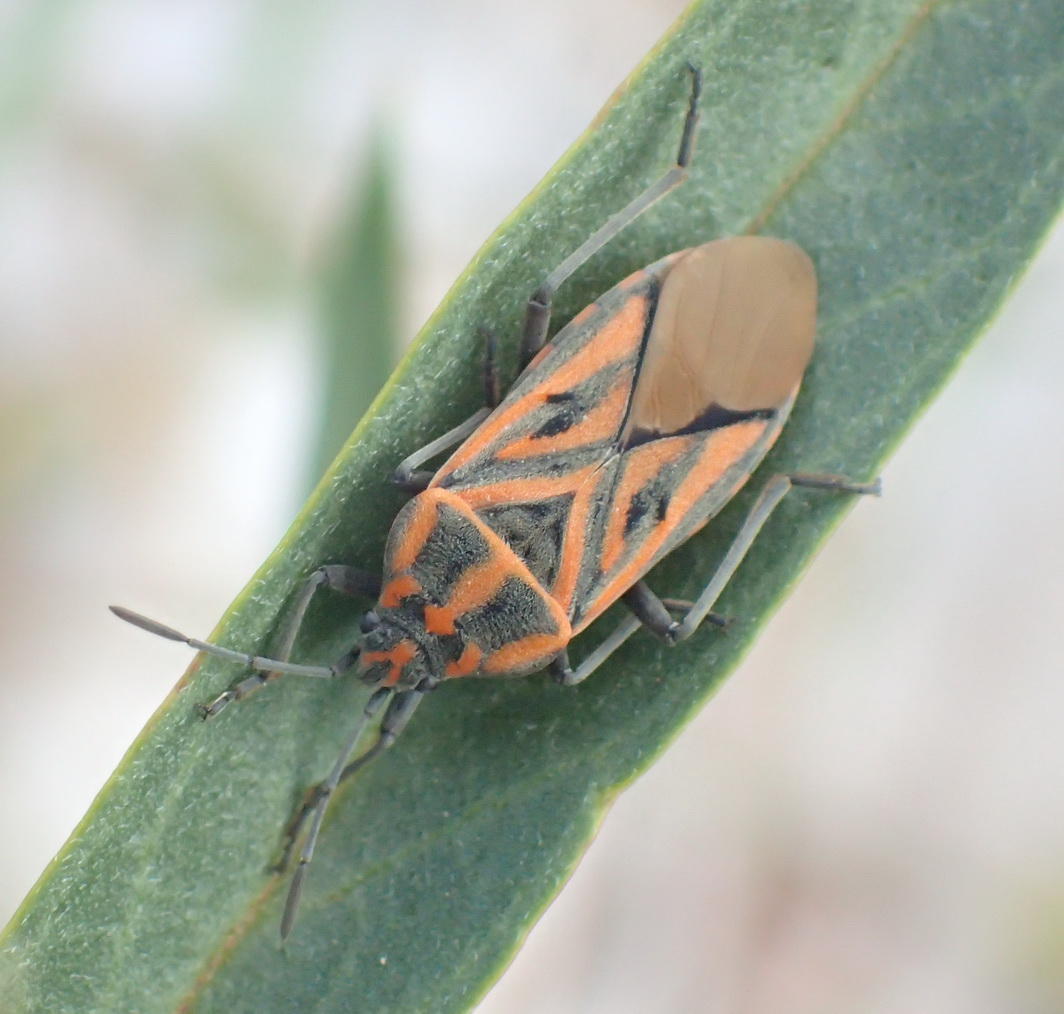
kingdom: Animalia
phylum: Arthropoda
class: Insecta
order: Hemiptera
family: Lygaeidae
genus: Spilostethus
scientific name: Spilostethus rivularis
